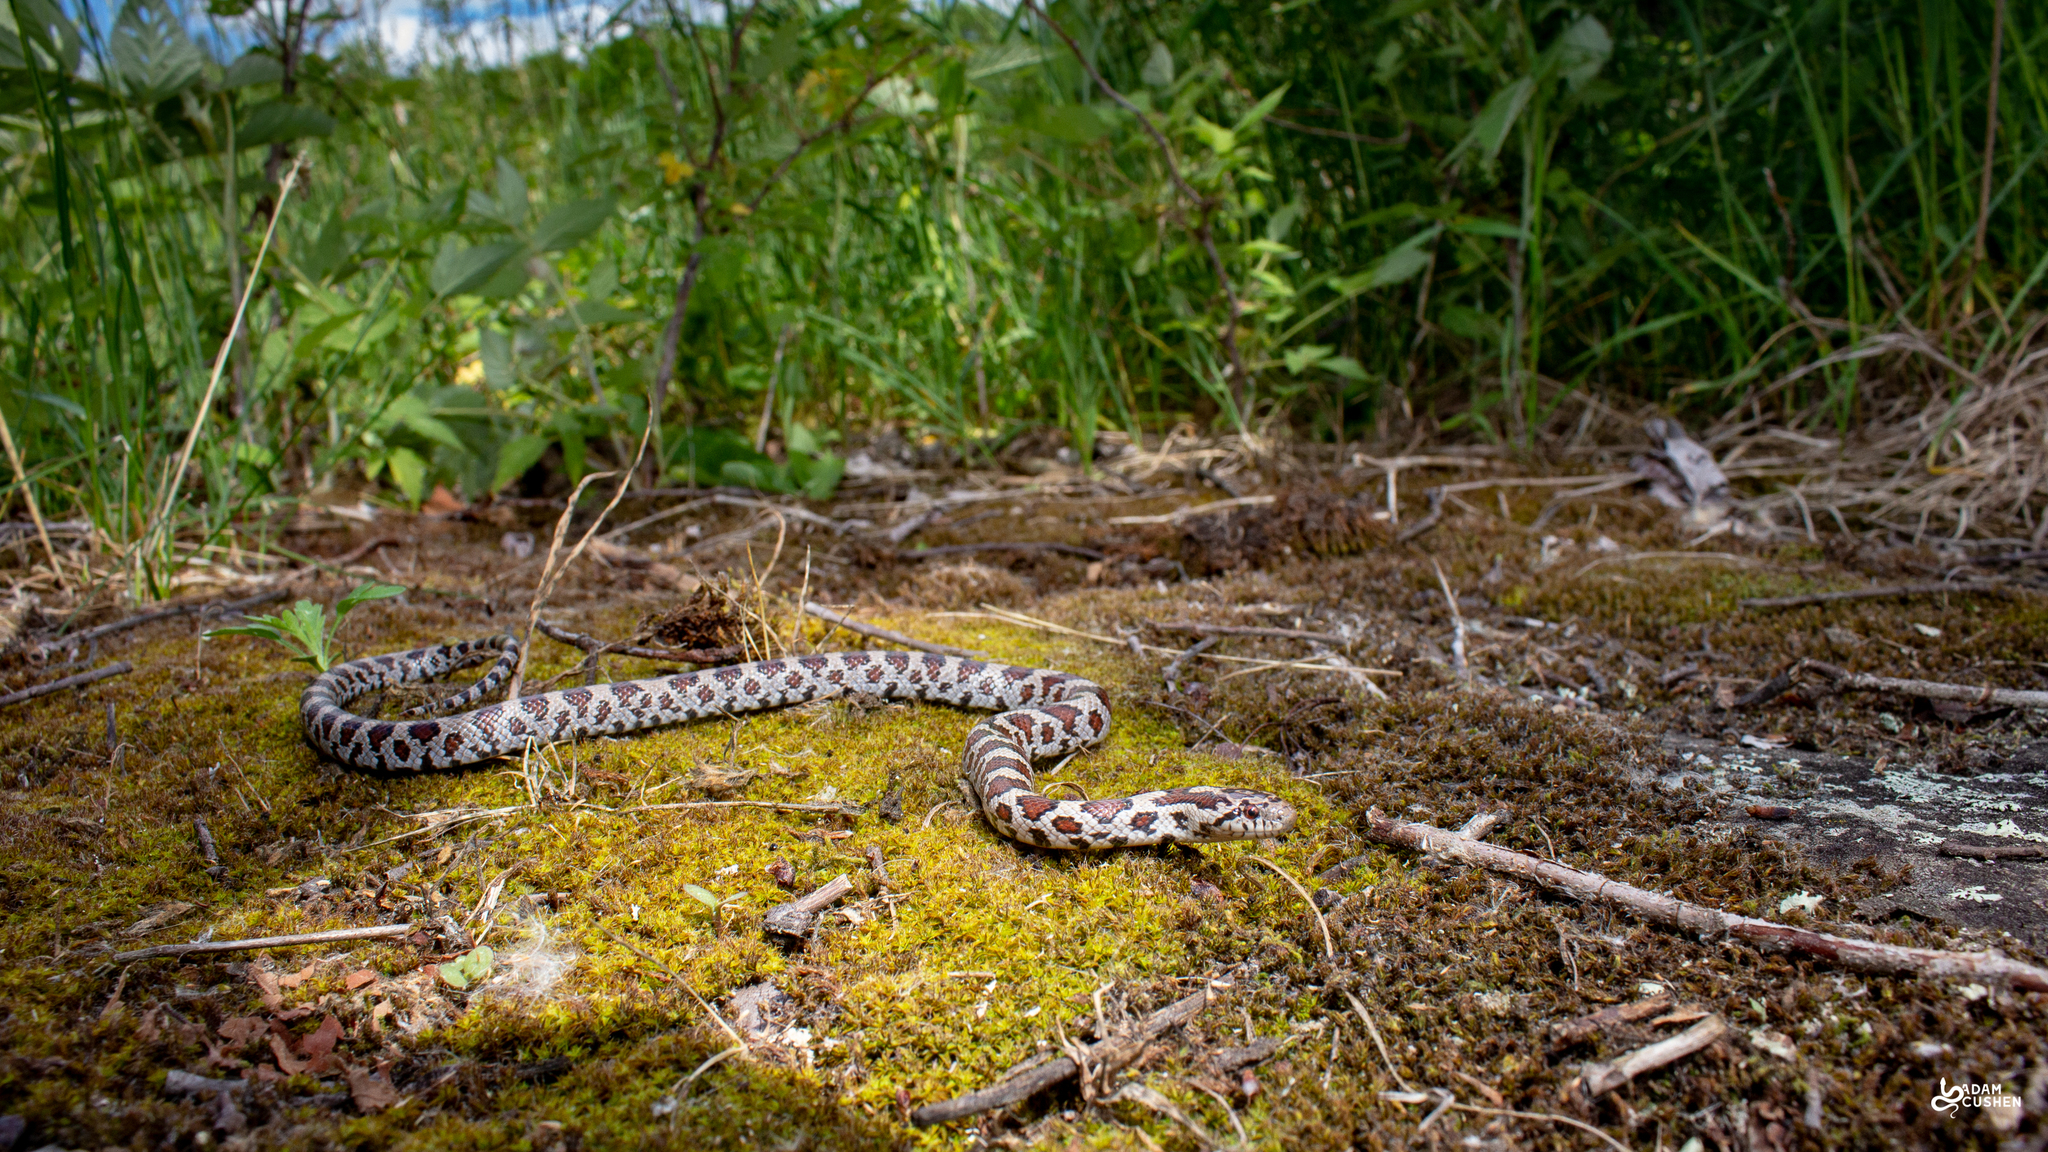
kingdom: Animalia
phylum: Chordata
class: Squamata
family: Colubridae
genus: Lampropeltis
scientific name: Lampropeltis triangulum
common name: Eastern milksnake
